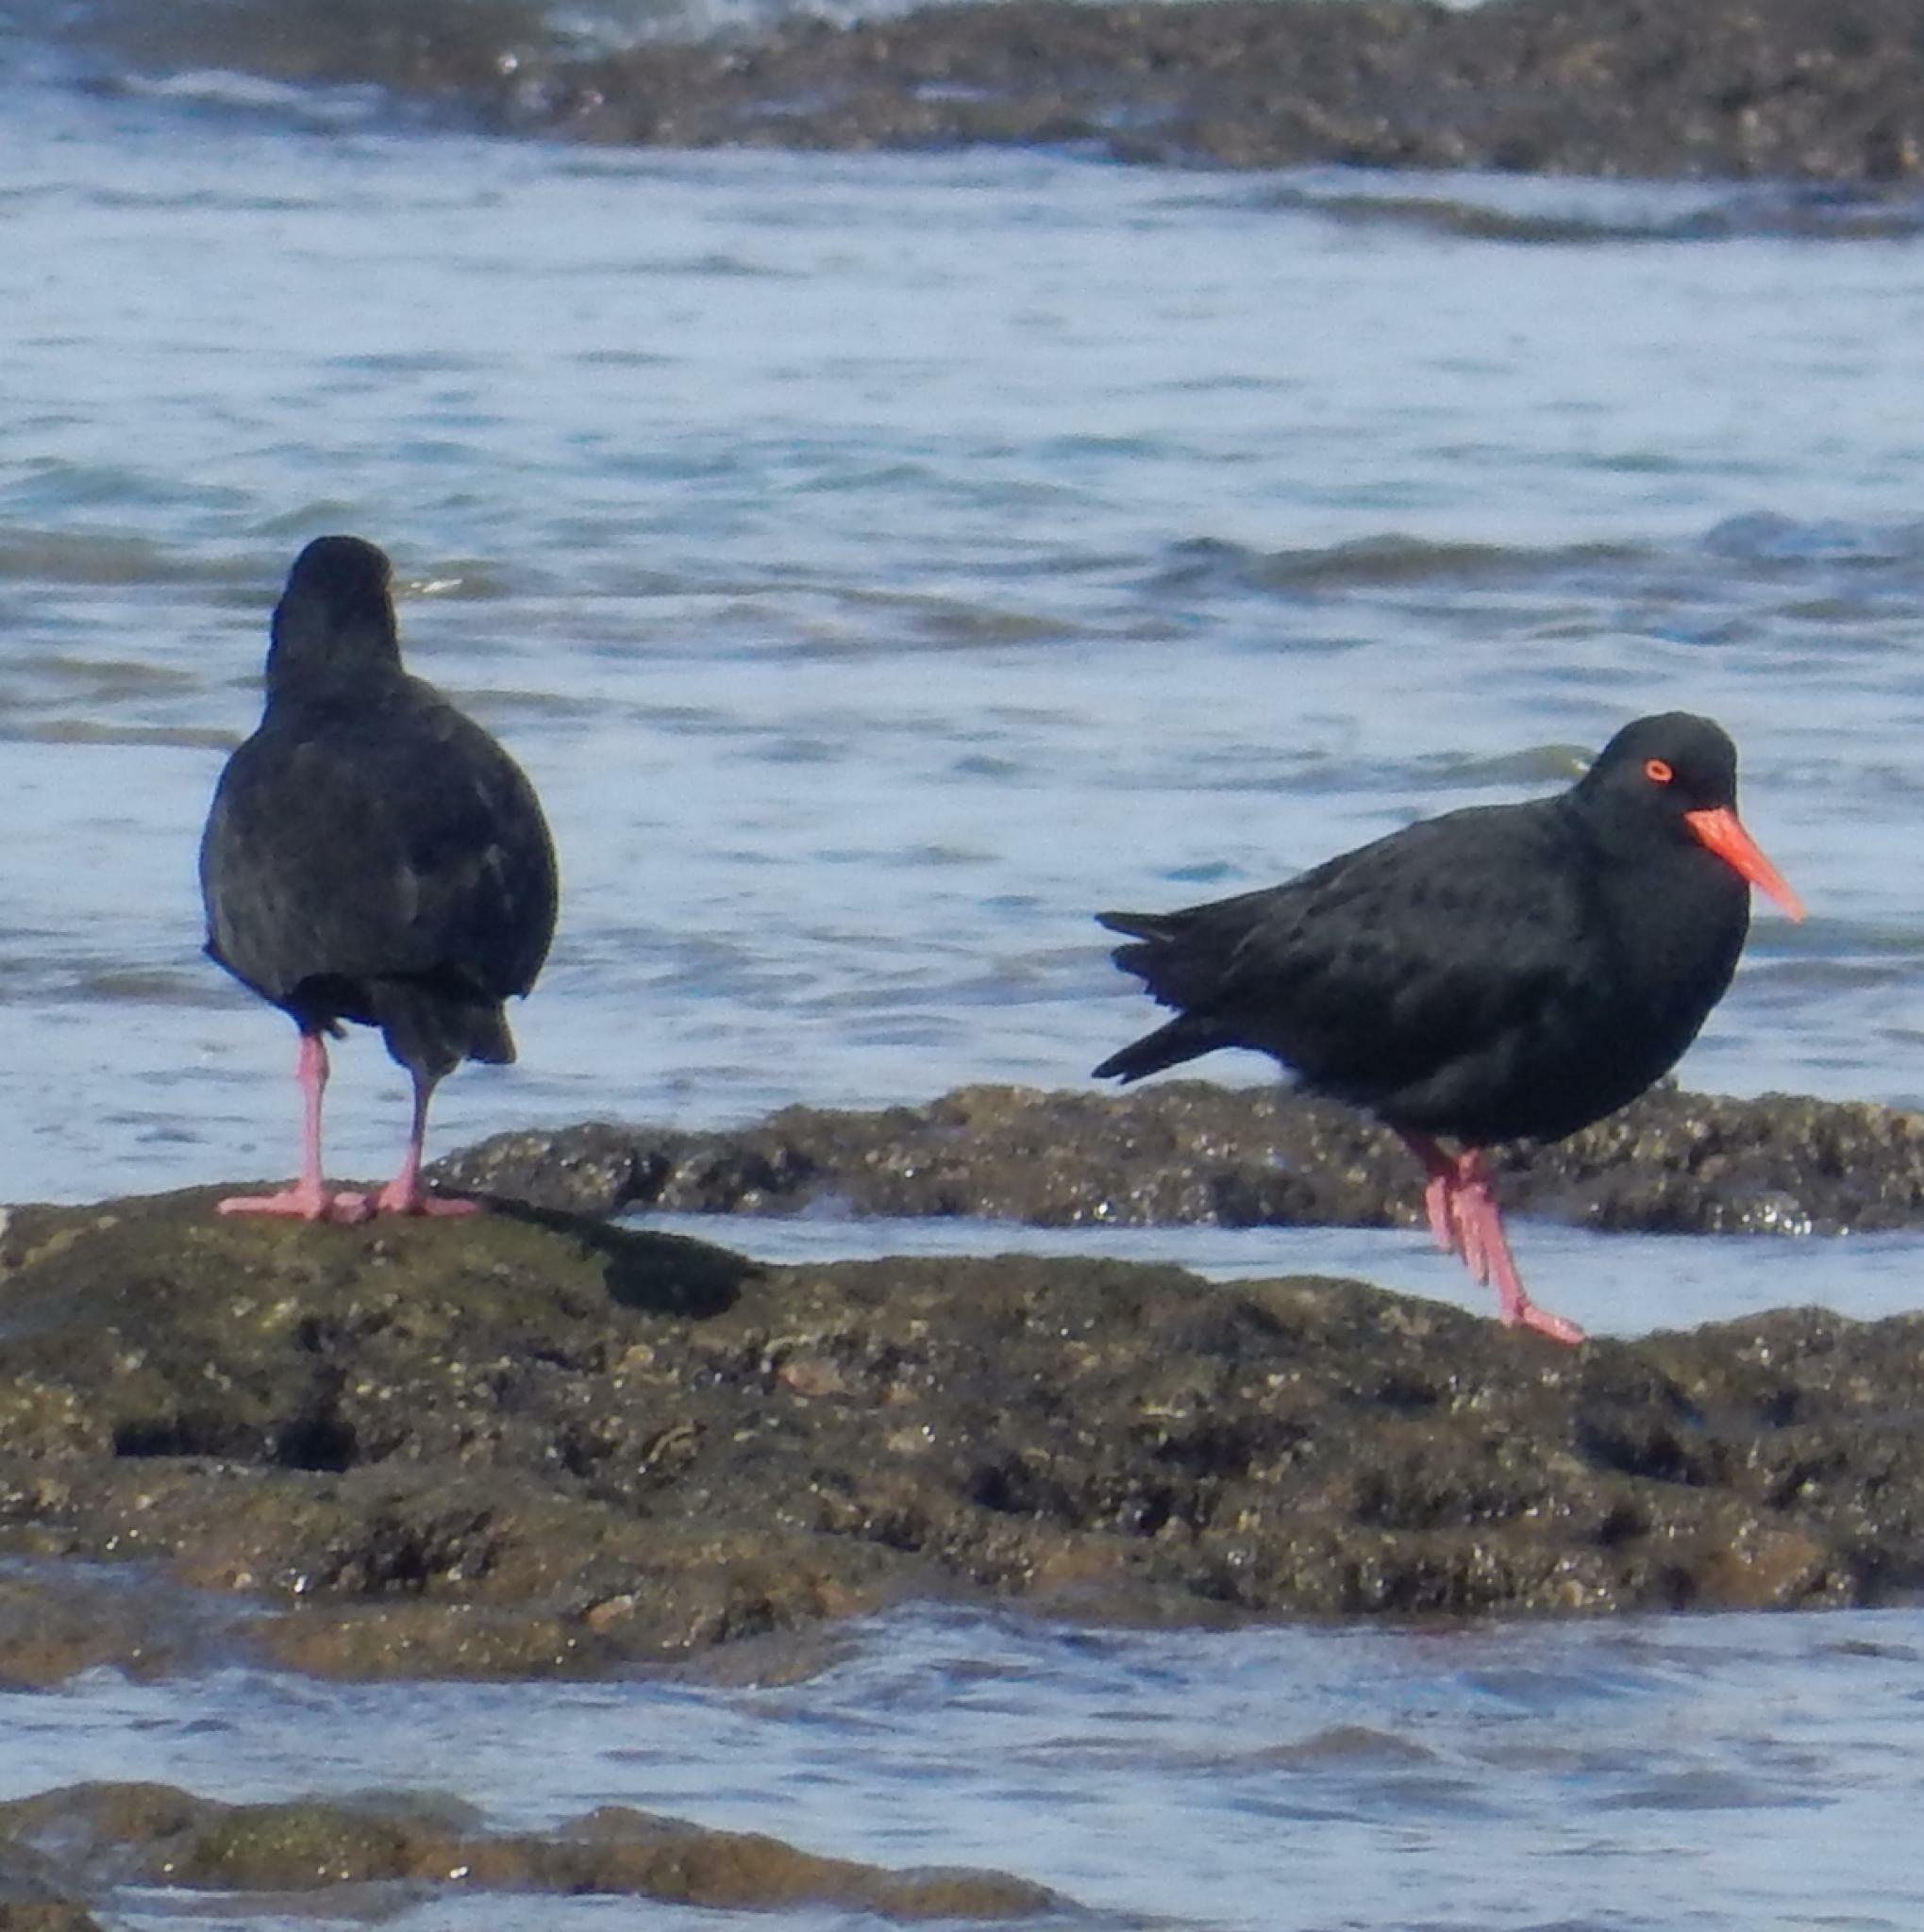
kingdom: Animalia
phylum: Chordata
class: Aves
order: Charadriiformes
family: Haematopodidae
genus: Haematopus
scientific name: Haematopus moquini
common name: African oystercatcher
